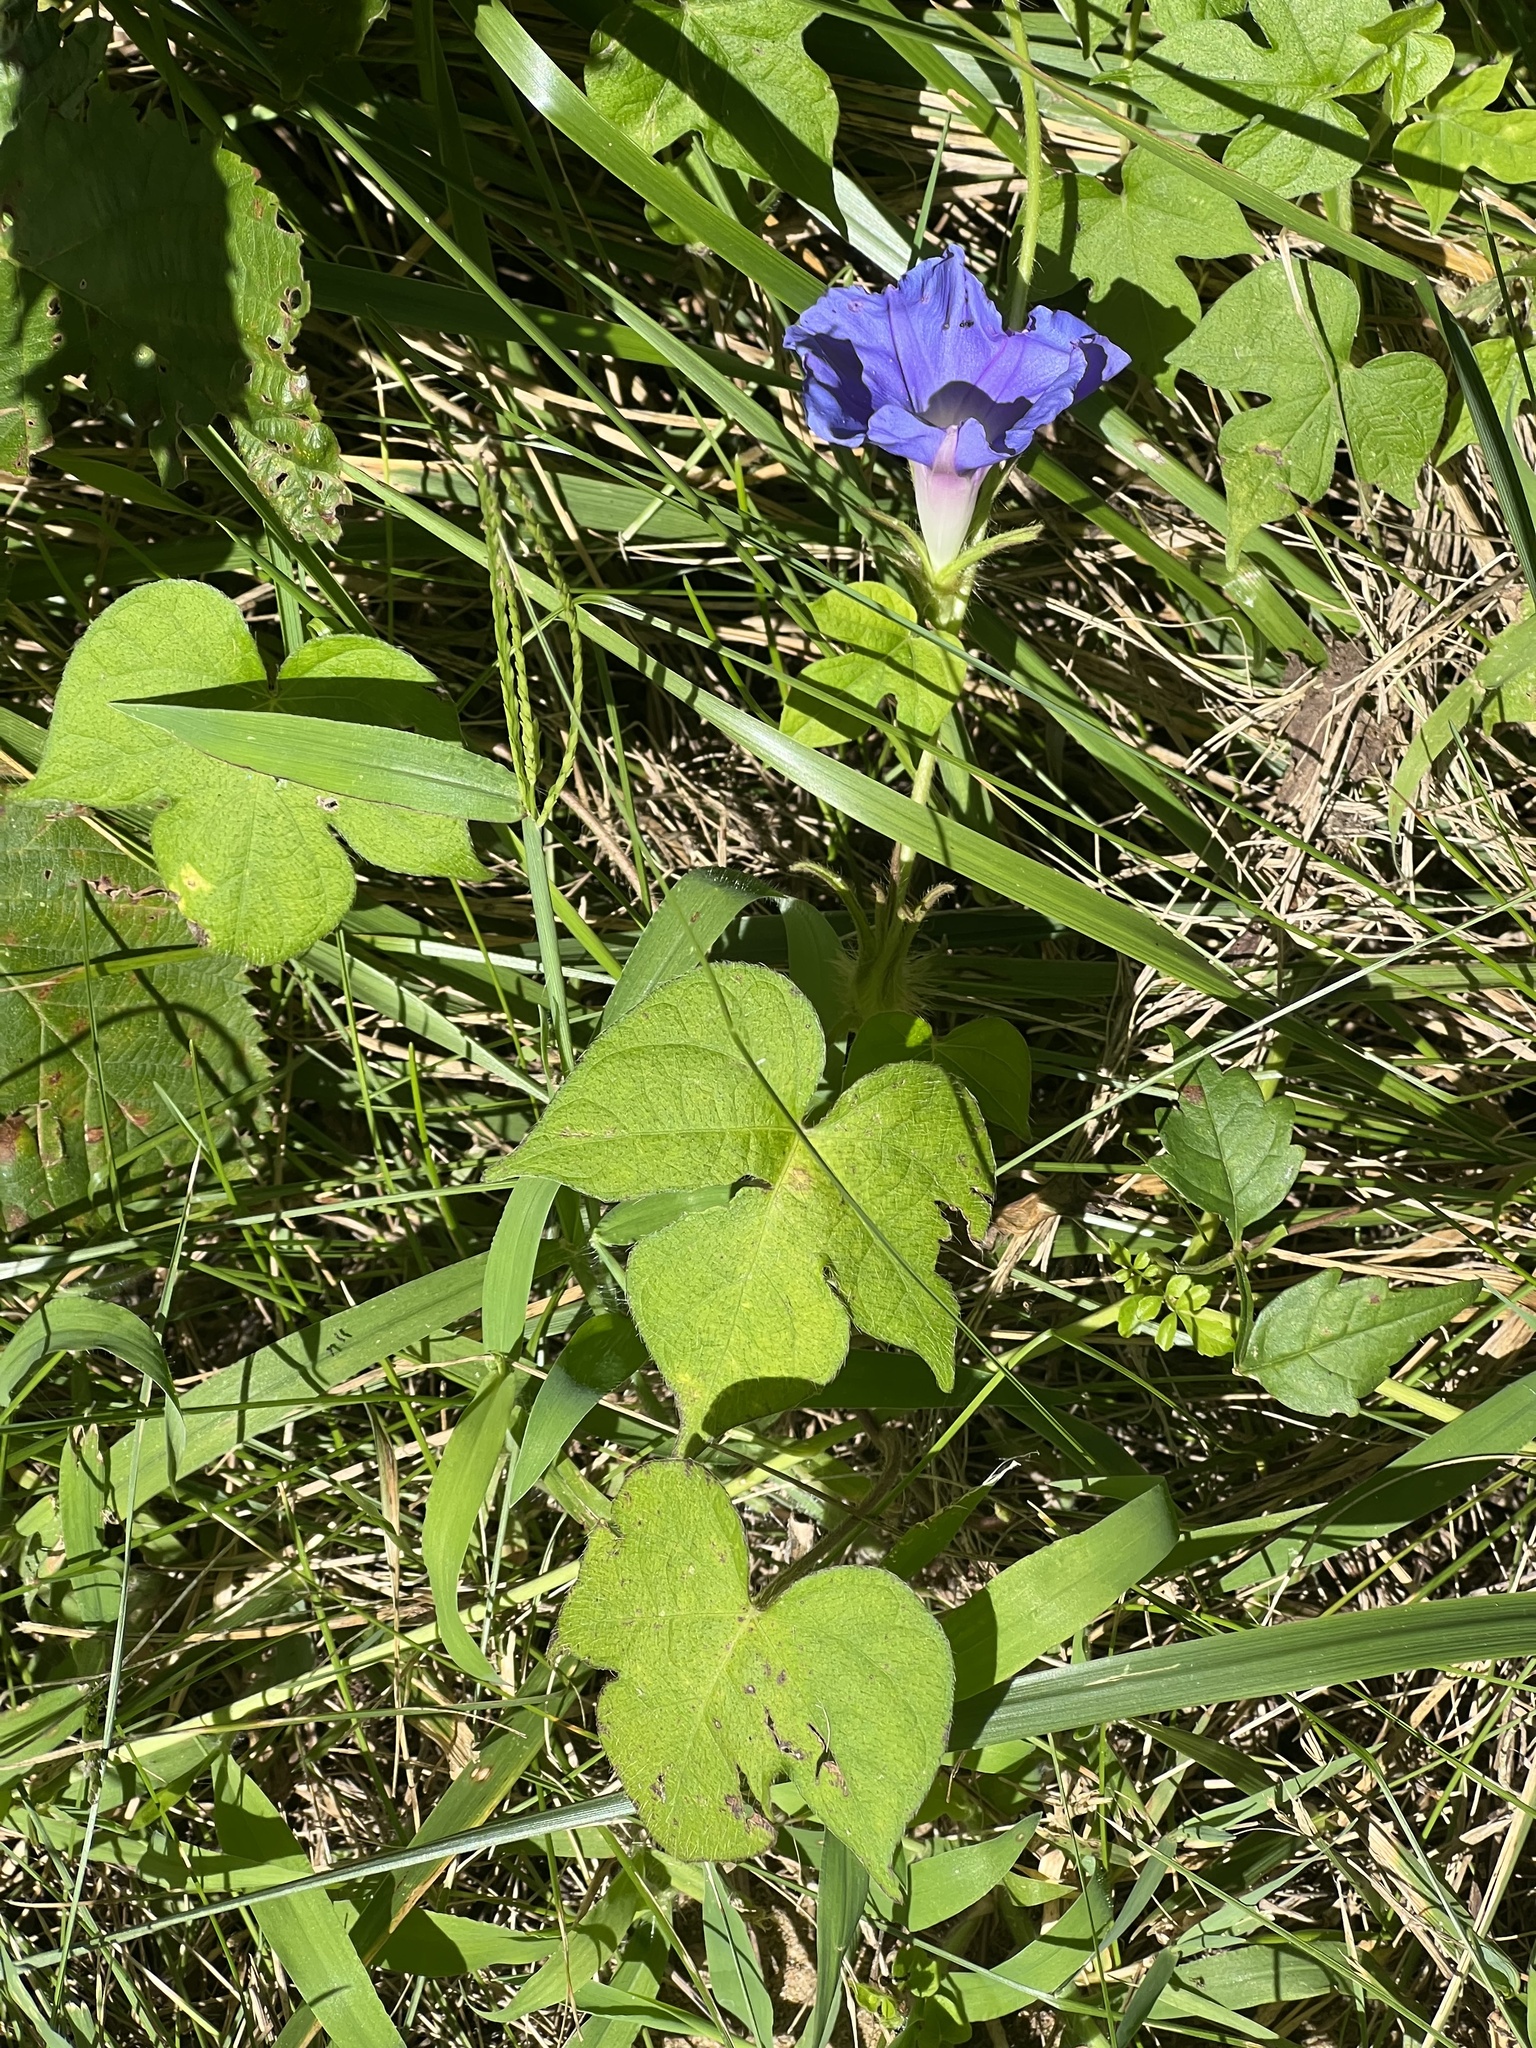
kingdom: Plantae
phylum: Tracheophyta
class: Magnoliopsida
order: Solanales
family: Convolvulaceae
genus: Ipomoea
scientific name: Ipomoea hederacea
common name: Ivy-leaved morning-glory
